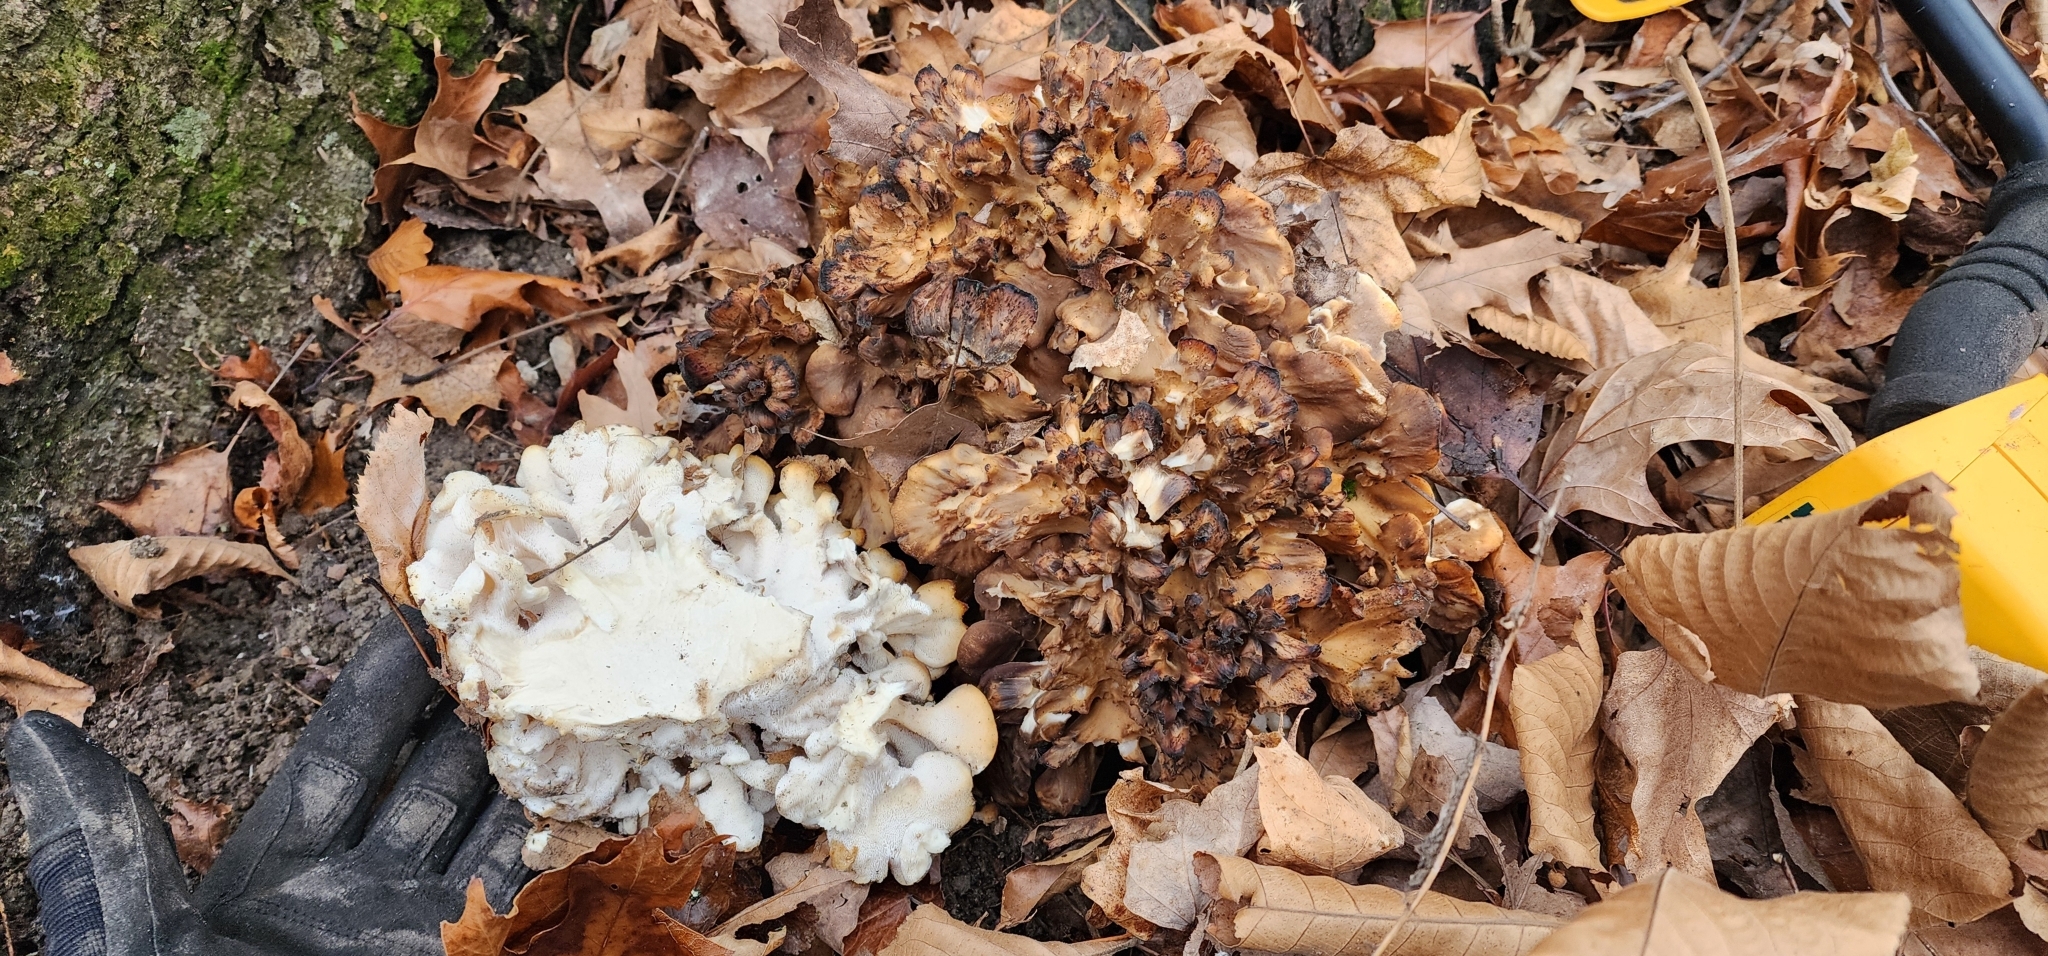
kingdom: Fungi
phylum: Basidiomycota
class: Agaricomycetes
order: Polyporales
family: Grifolaceae
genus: Grifola
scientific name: Grifola frondosa
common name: Hen of the woods
